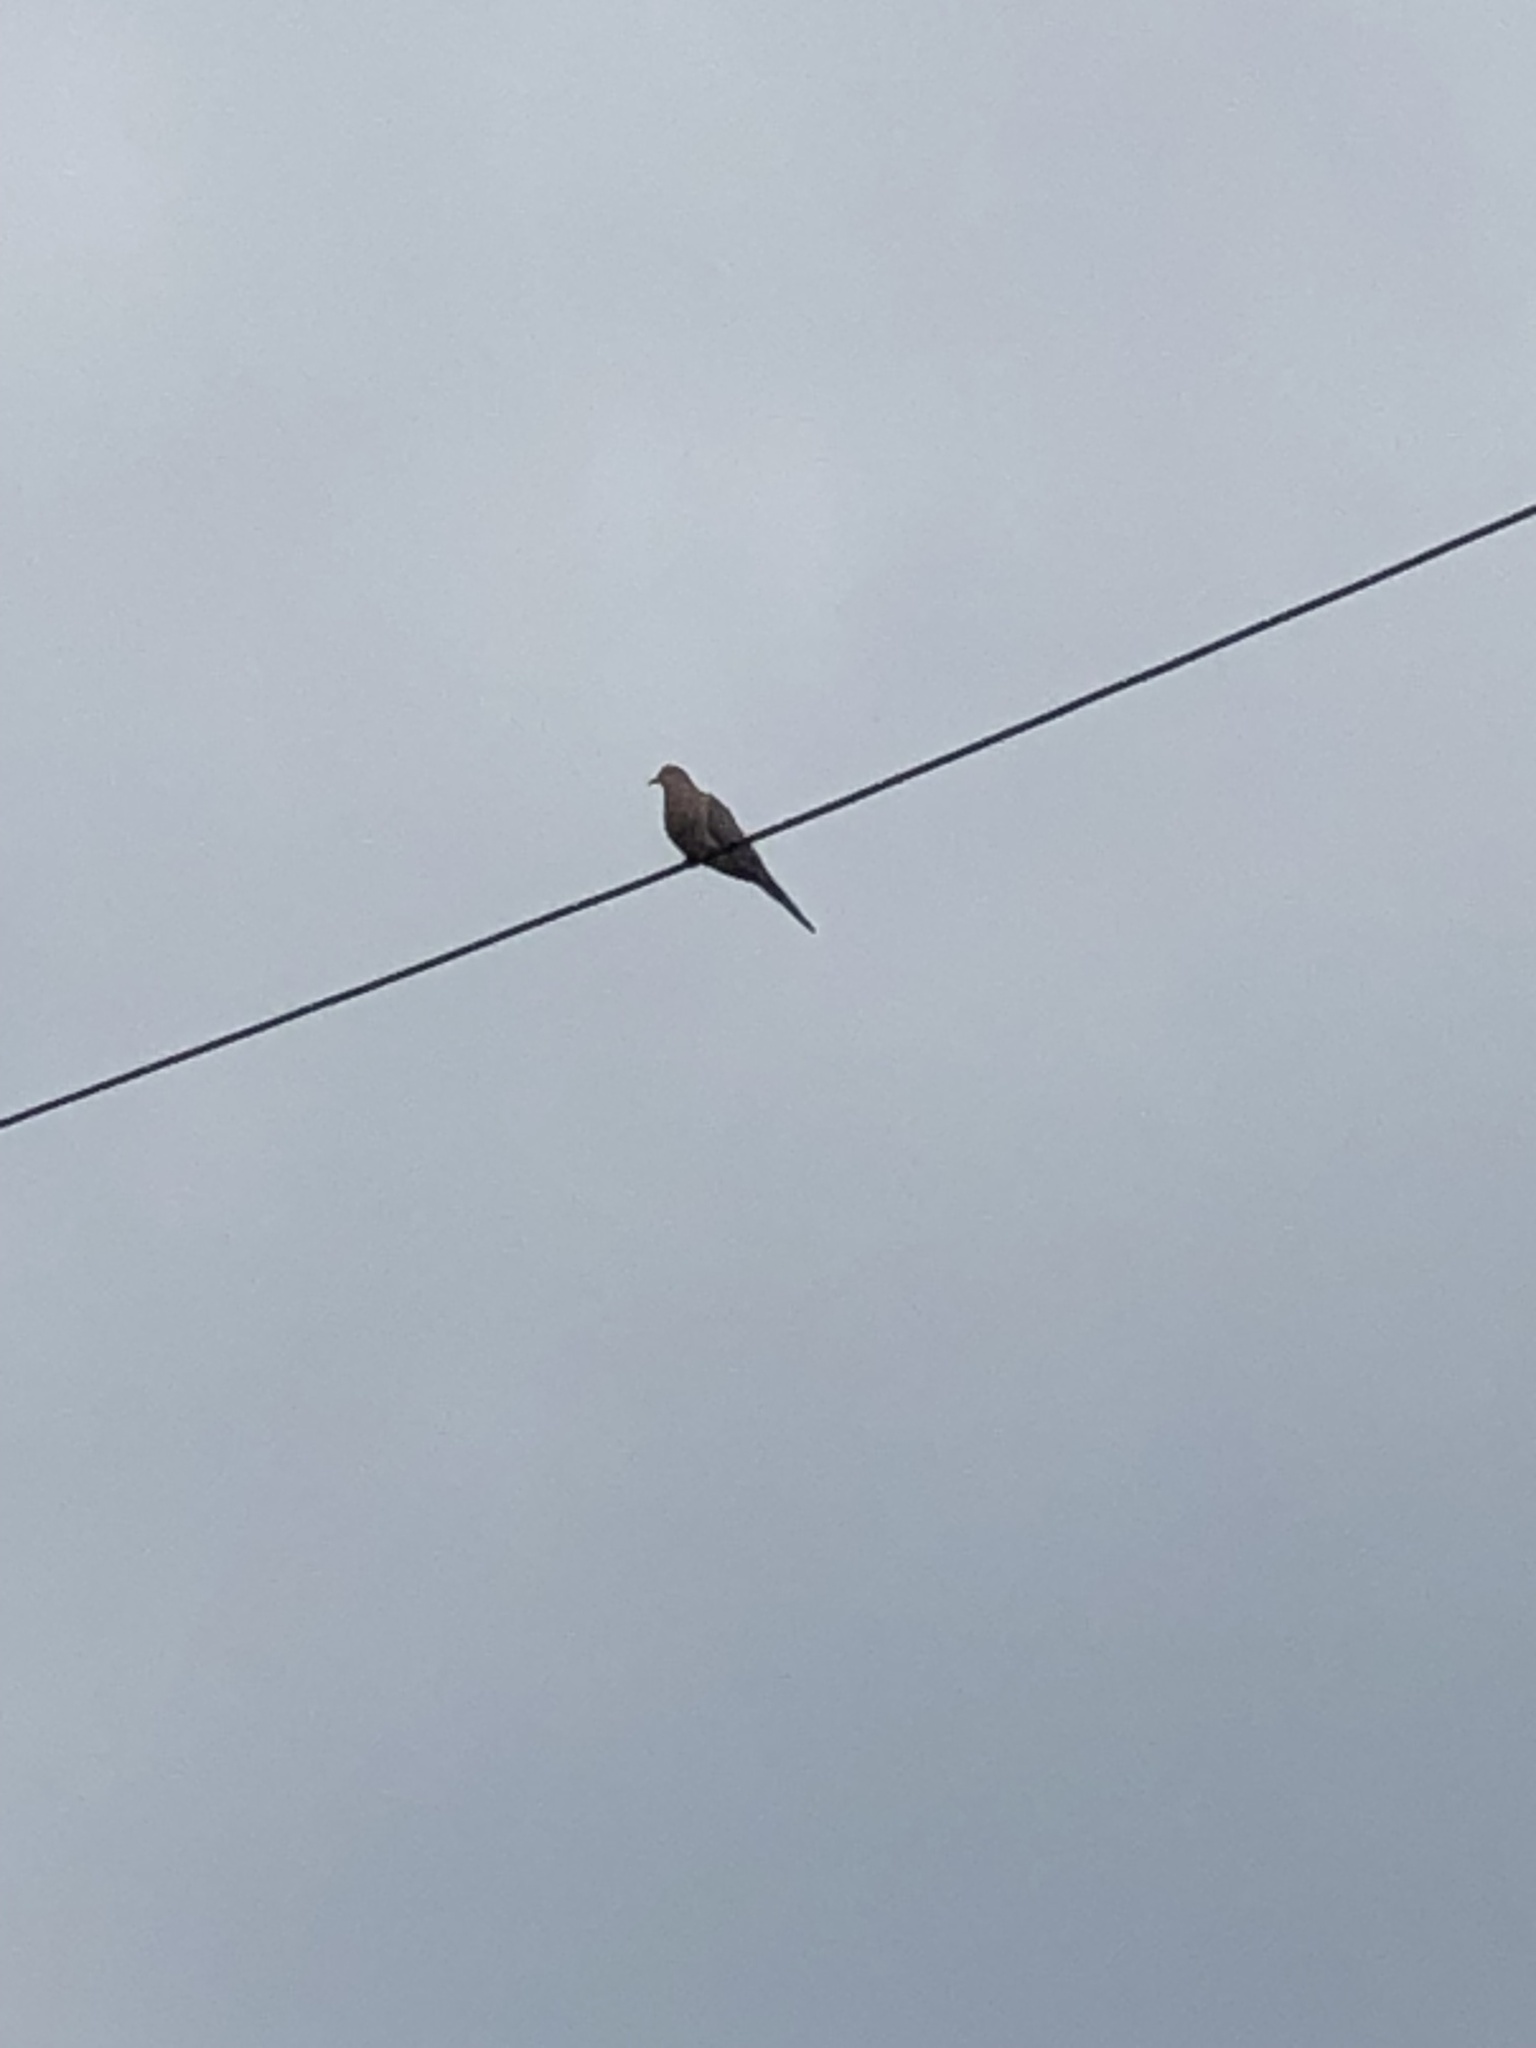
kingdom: Animalia
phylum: Chordata
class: Aves
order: Columbiformes
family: Columbidae
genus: Zenaida
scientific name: Zenaida macroura
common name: Mourning dove
